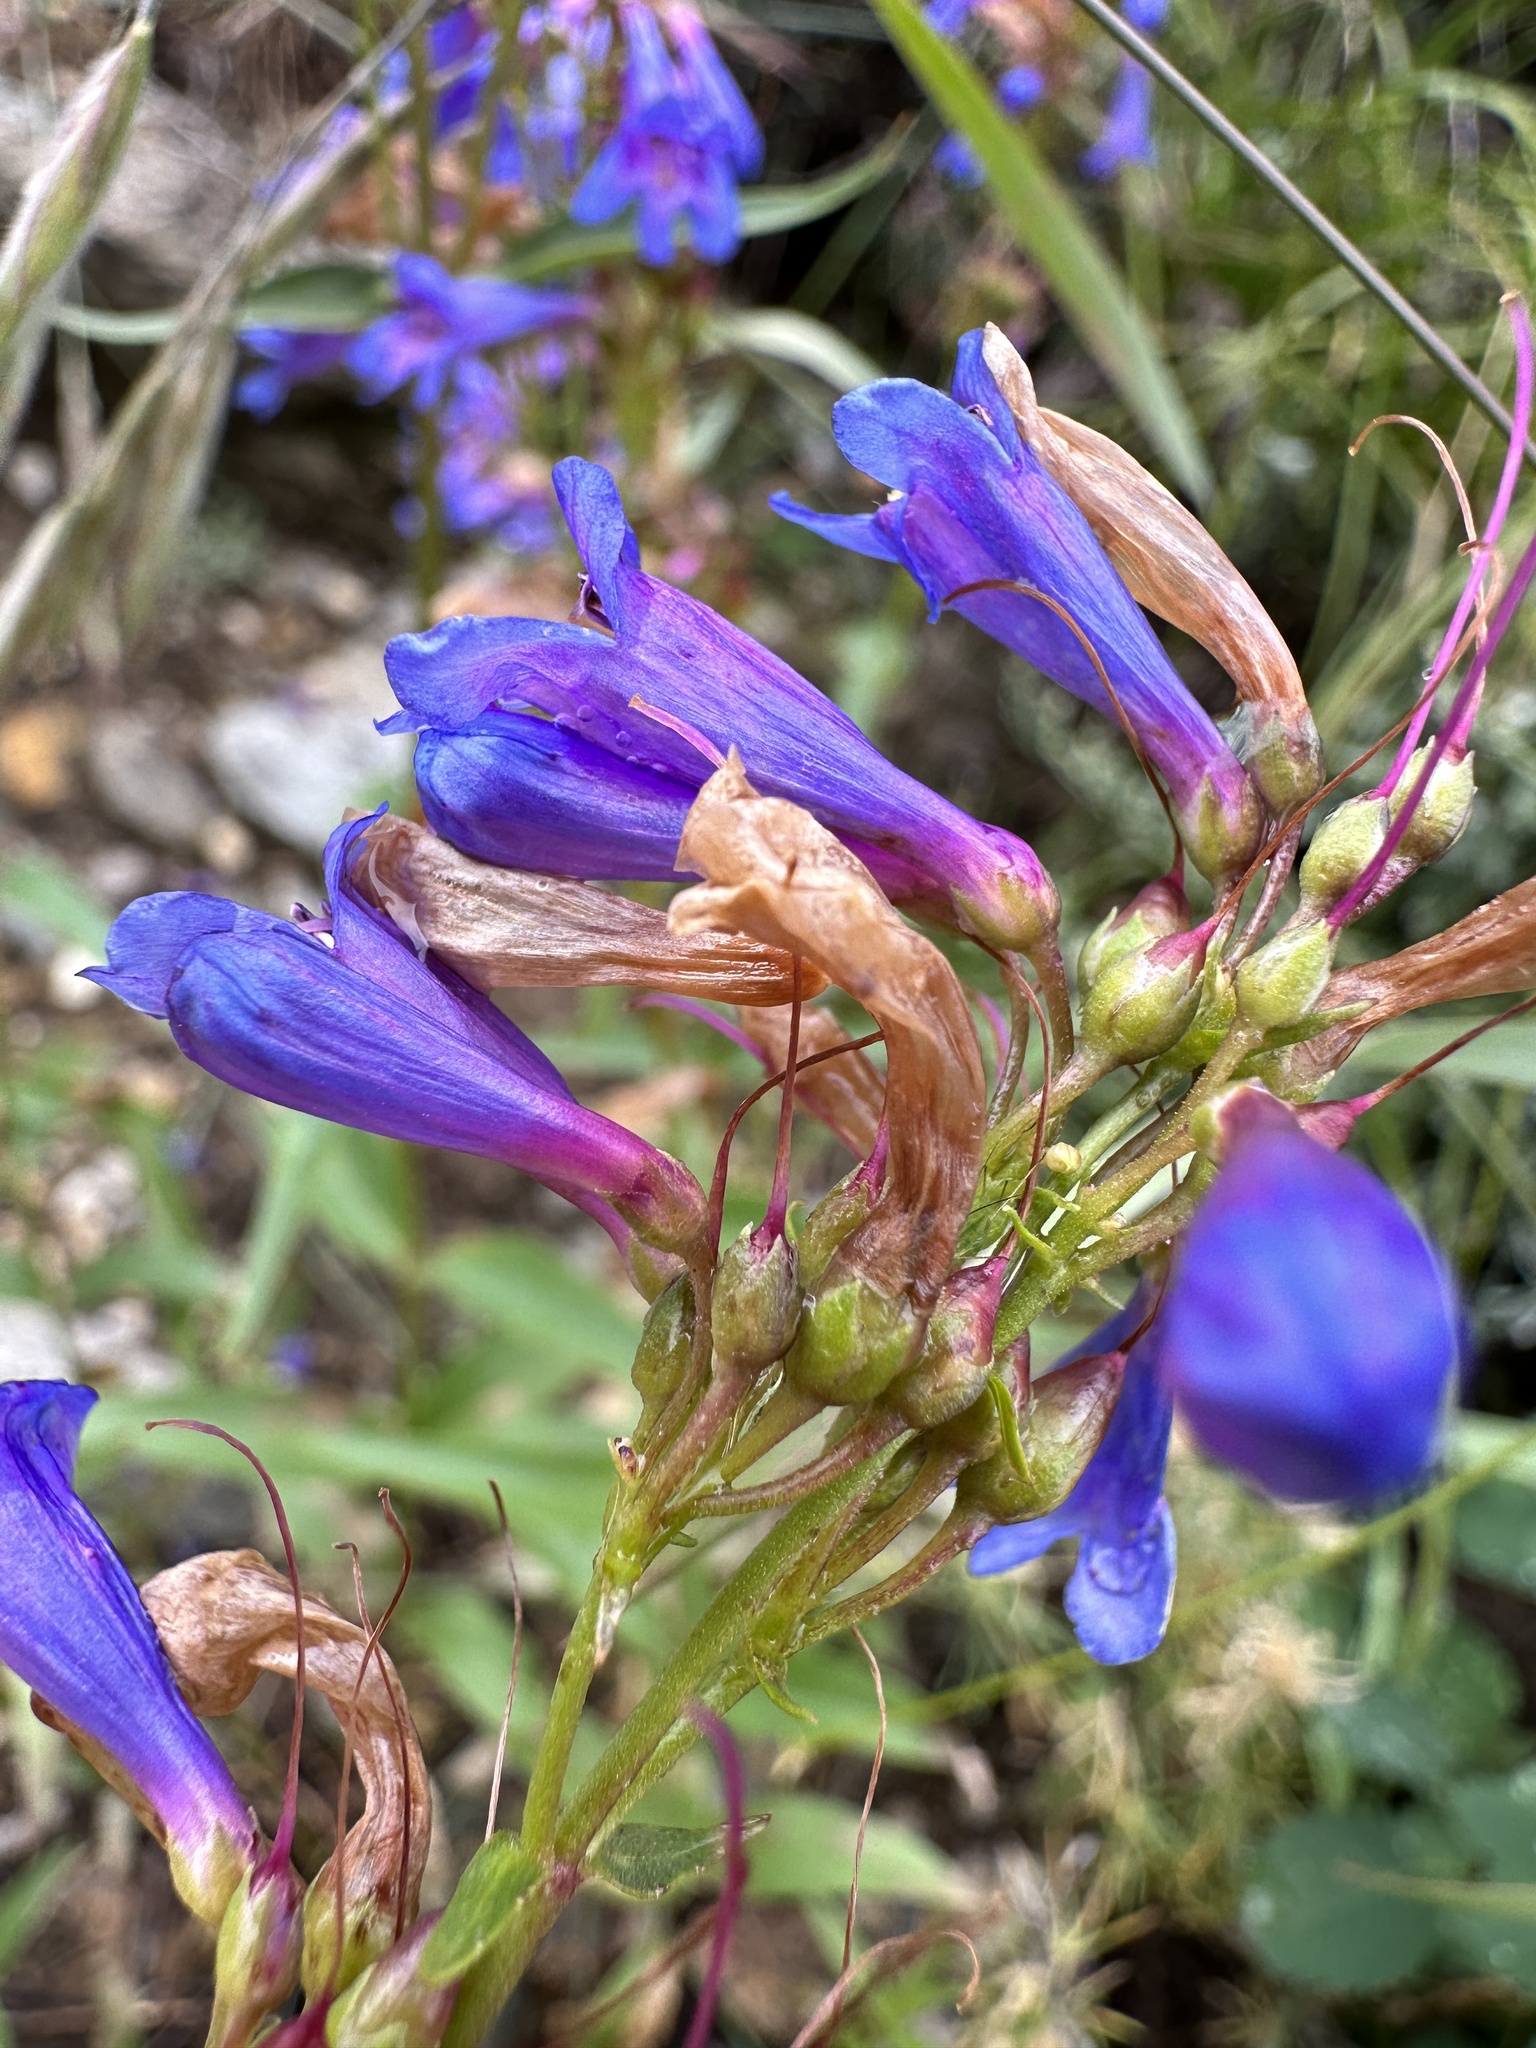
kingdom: Plantae
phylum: Tracheophyta
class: Magnoliopsida
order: Lamiales
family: Plantaginaceae
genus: Penstemon
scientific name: Penstemon watsonii
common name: Watson's penstemon
